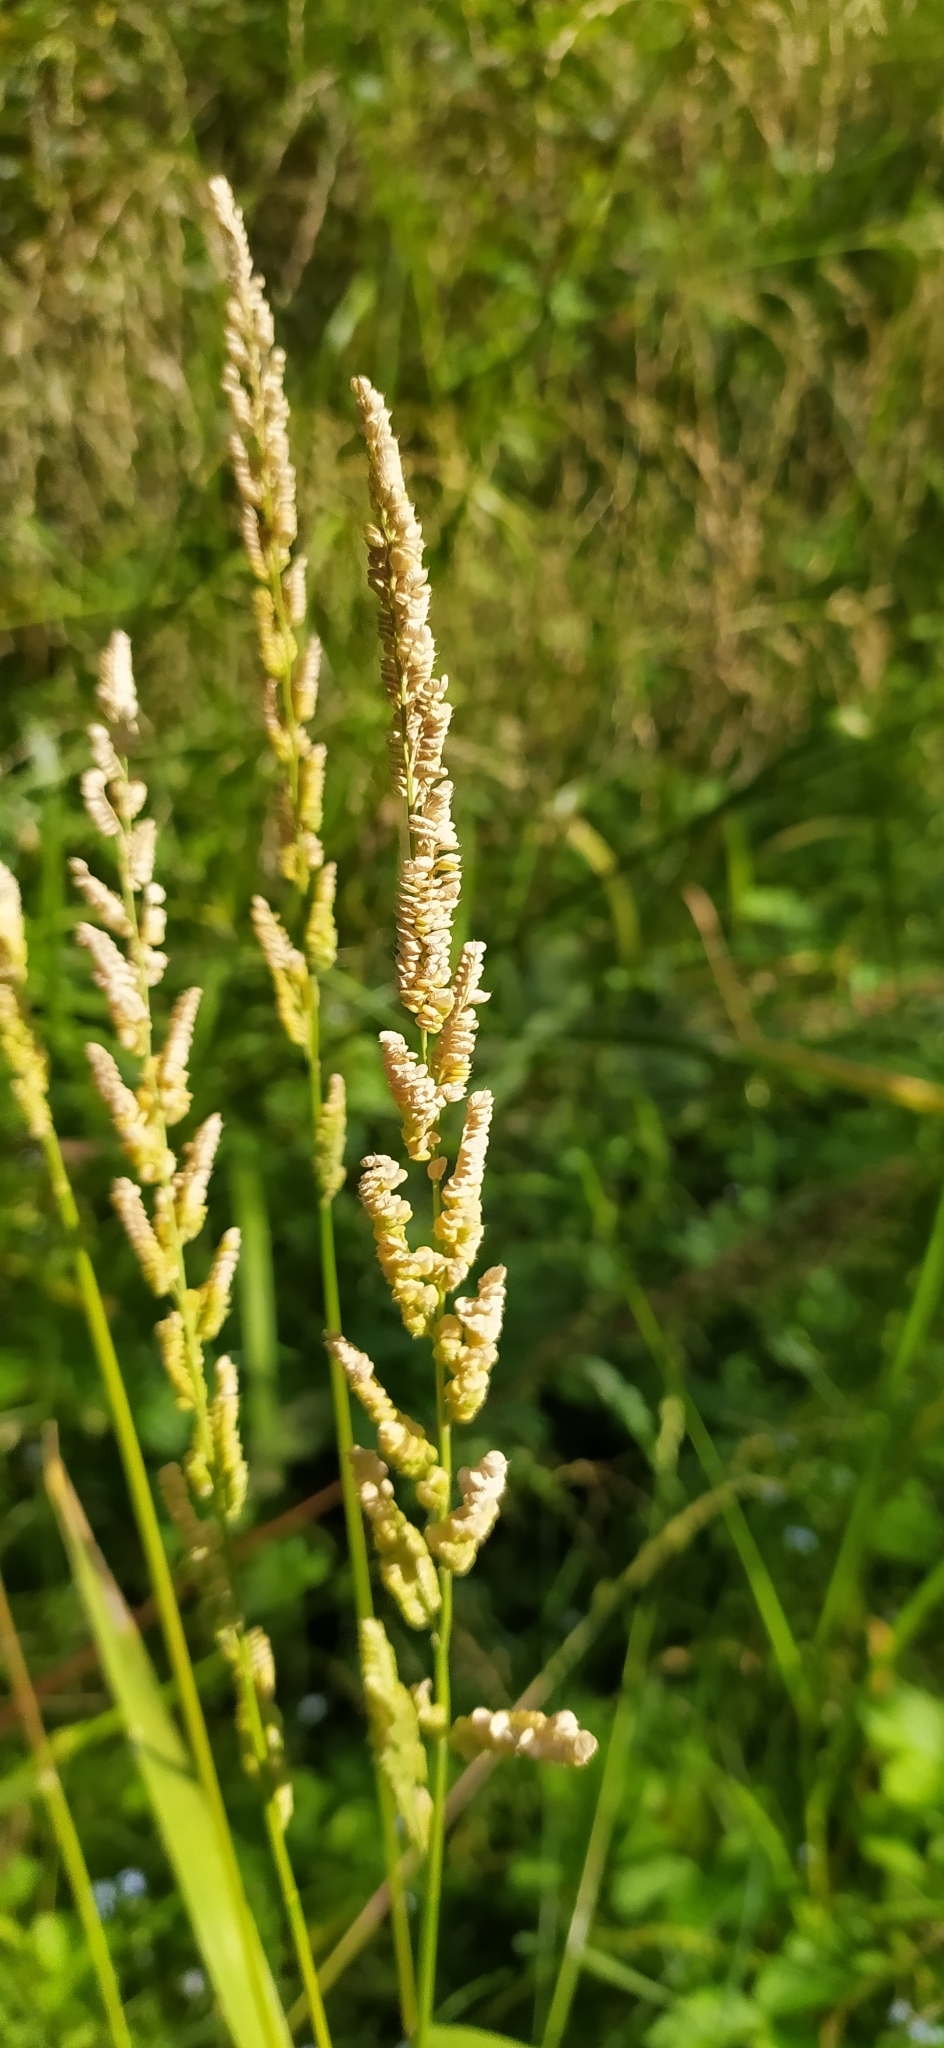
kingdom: Plantae
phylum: Tracheophyta
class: Liliopsida
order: Poales
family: Poaceae
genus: Beckmannia
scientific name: Beckmannia syzigachne
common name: American slough-grass
